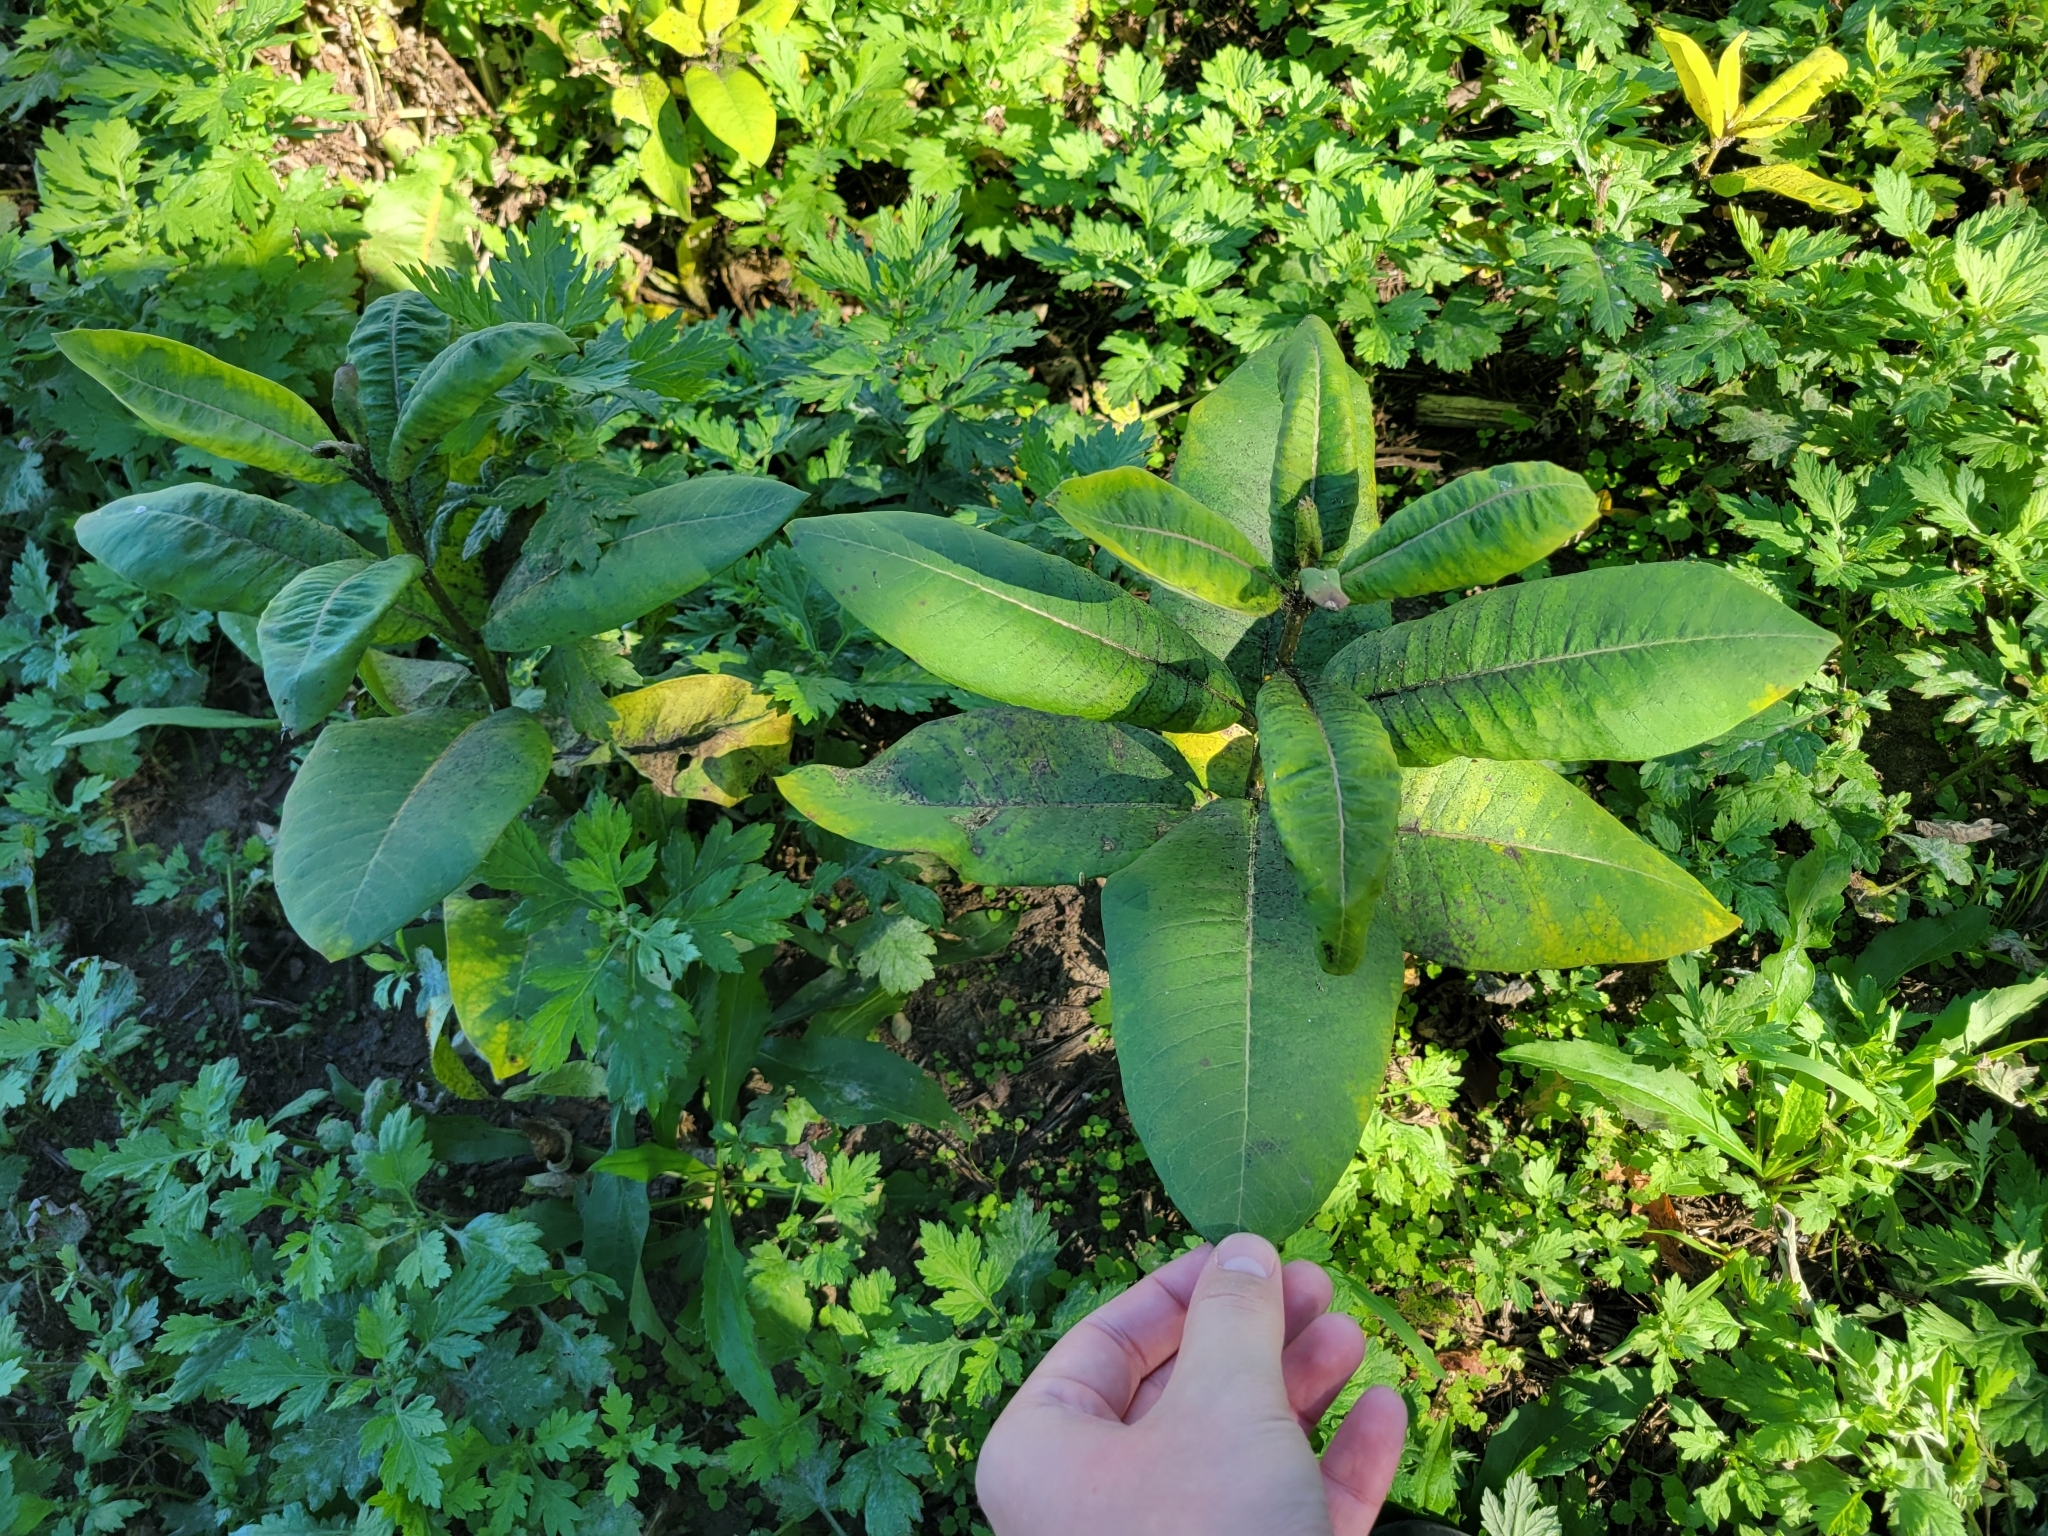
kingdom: Plantae
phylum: Tracheophyta
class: Magnoliopsida
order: Gentianales
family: Apocynaceae
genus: Asclepias
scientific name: Asclepias syriaca
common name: Common milkweed
